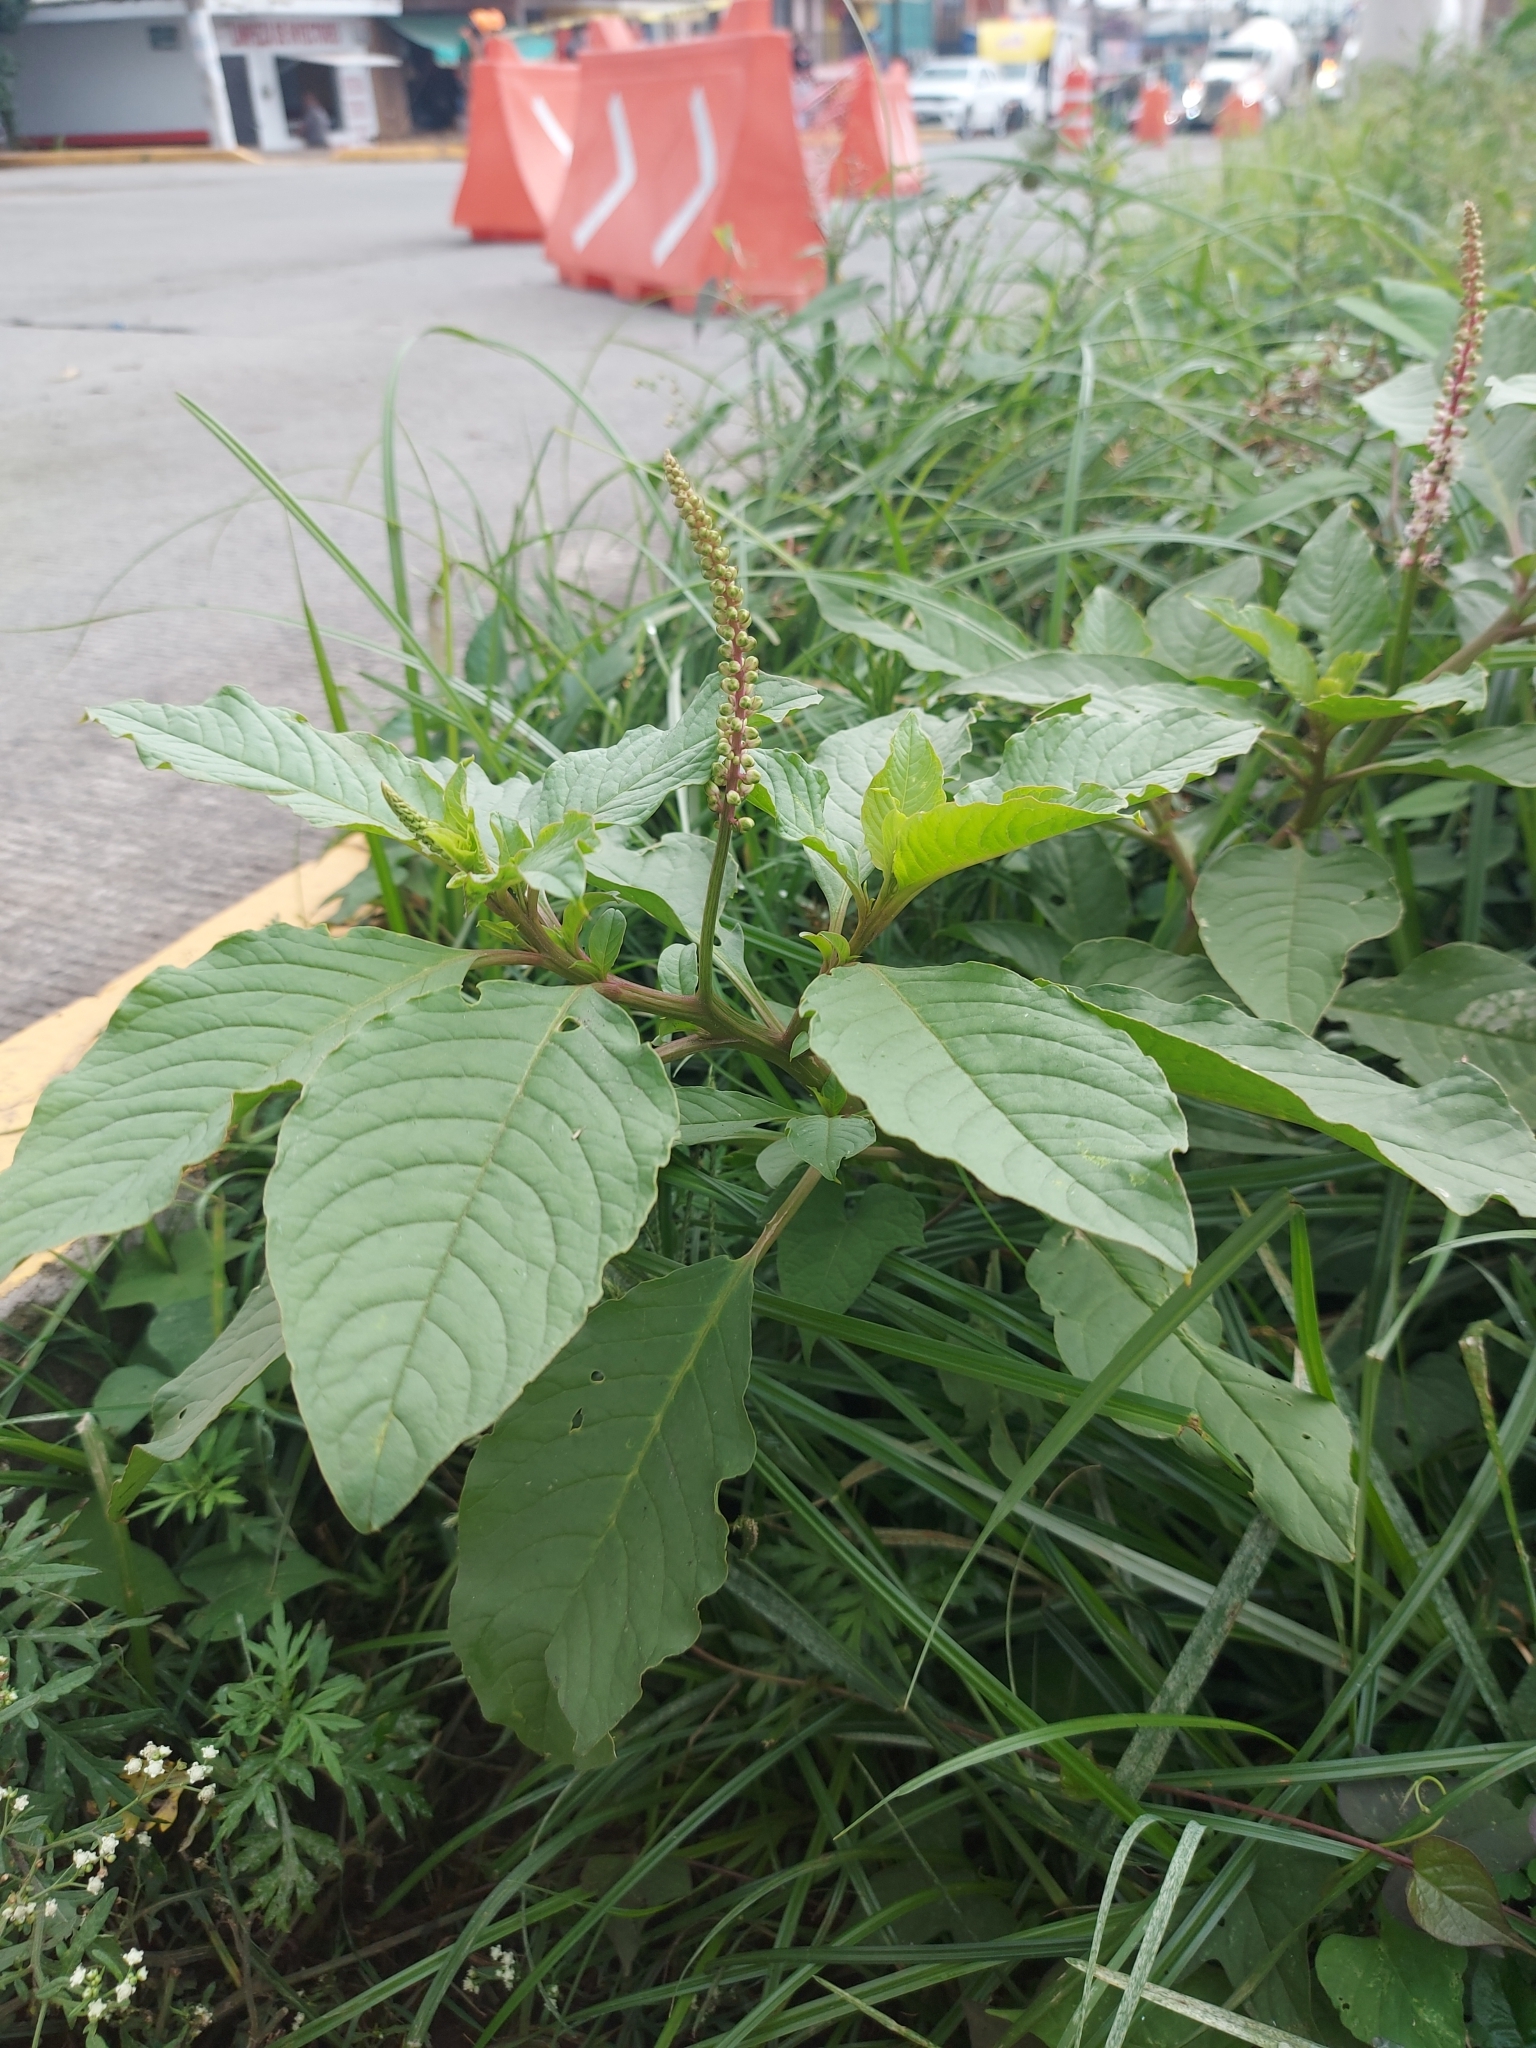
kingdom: Plantae
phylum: Tracheophyta
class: Magnoliopsida
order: Caryophyllales
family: Phytolaccaceae
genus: Phytolacca
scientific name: Phytolacca icosandra
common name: Button pokeweed
